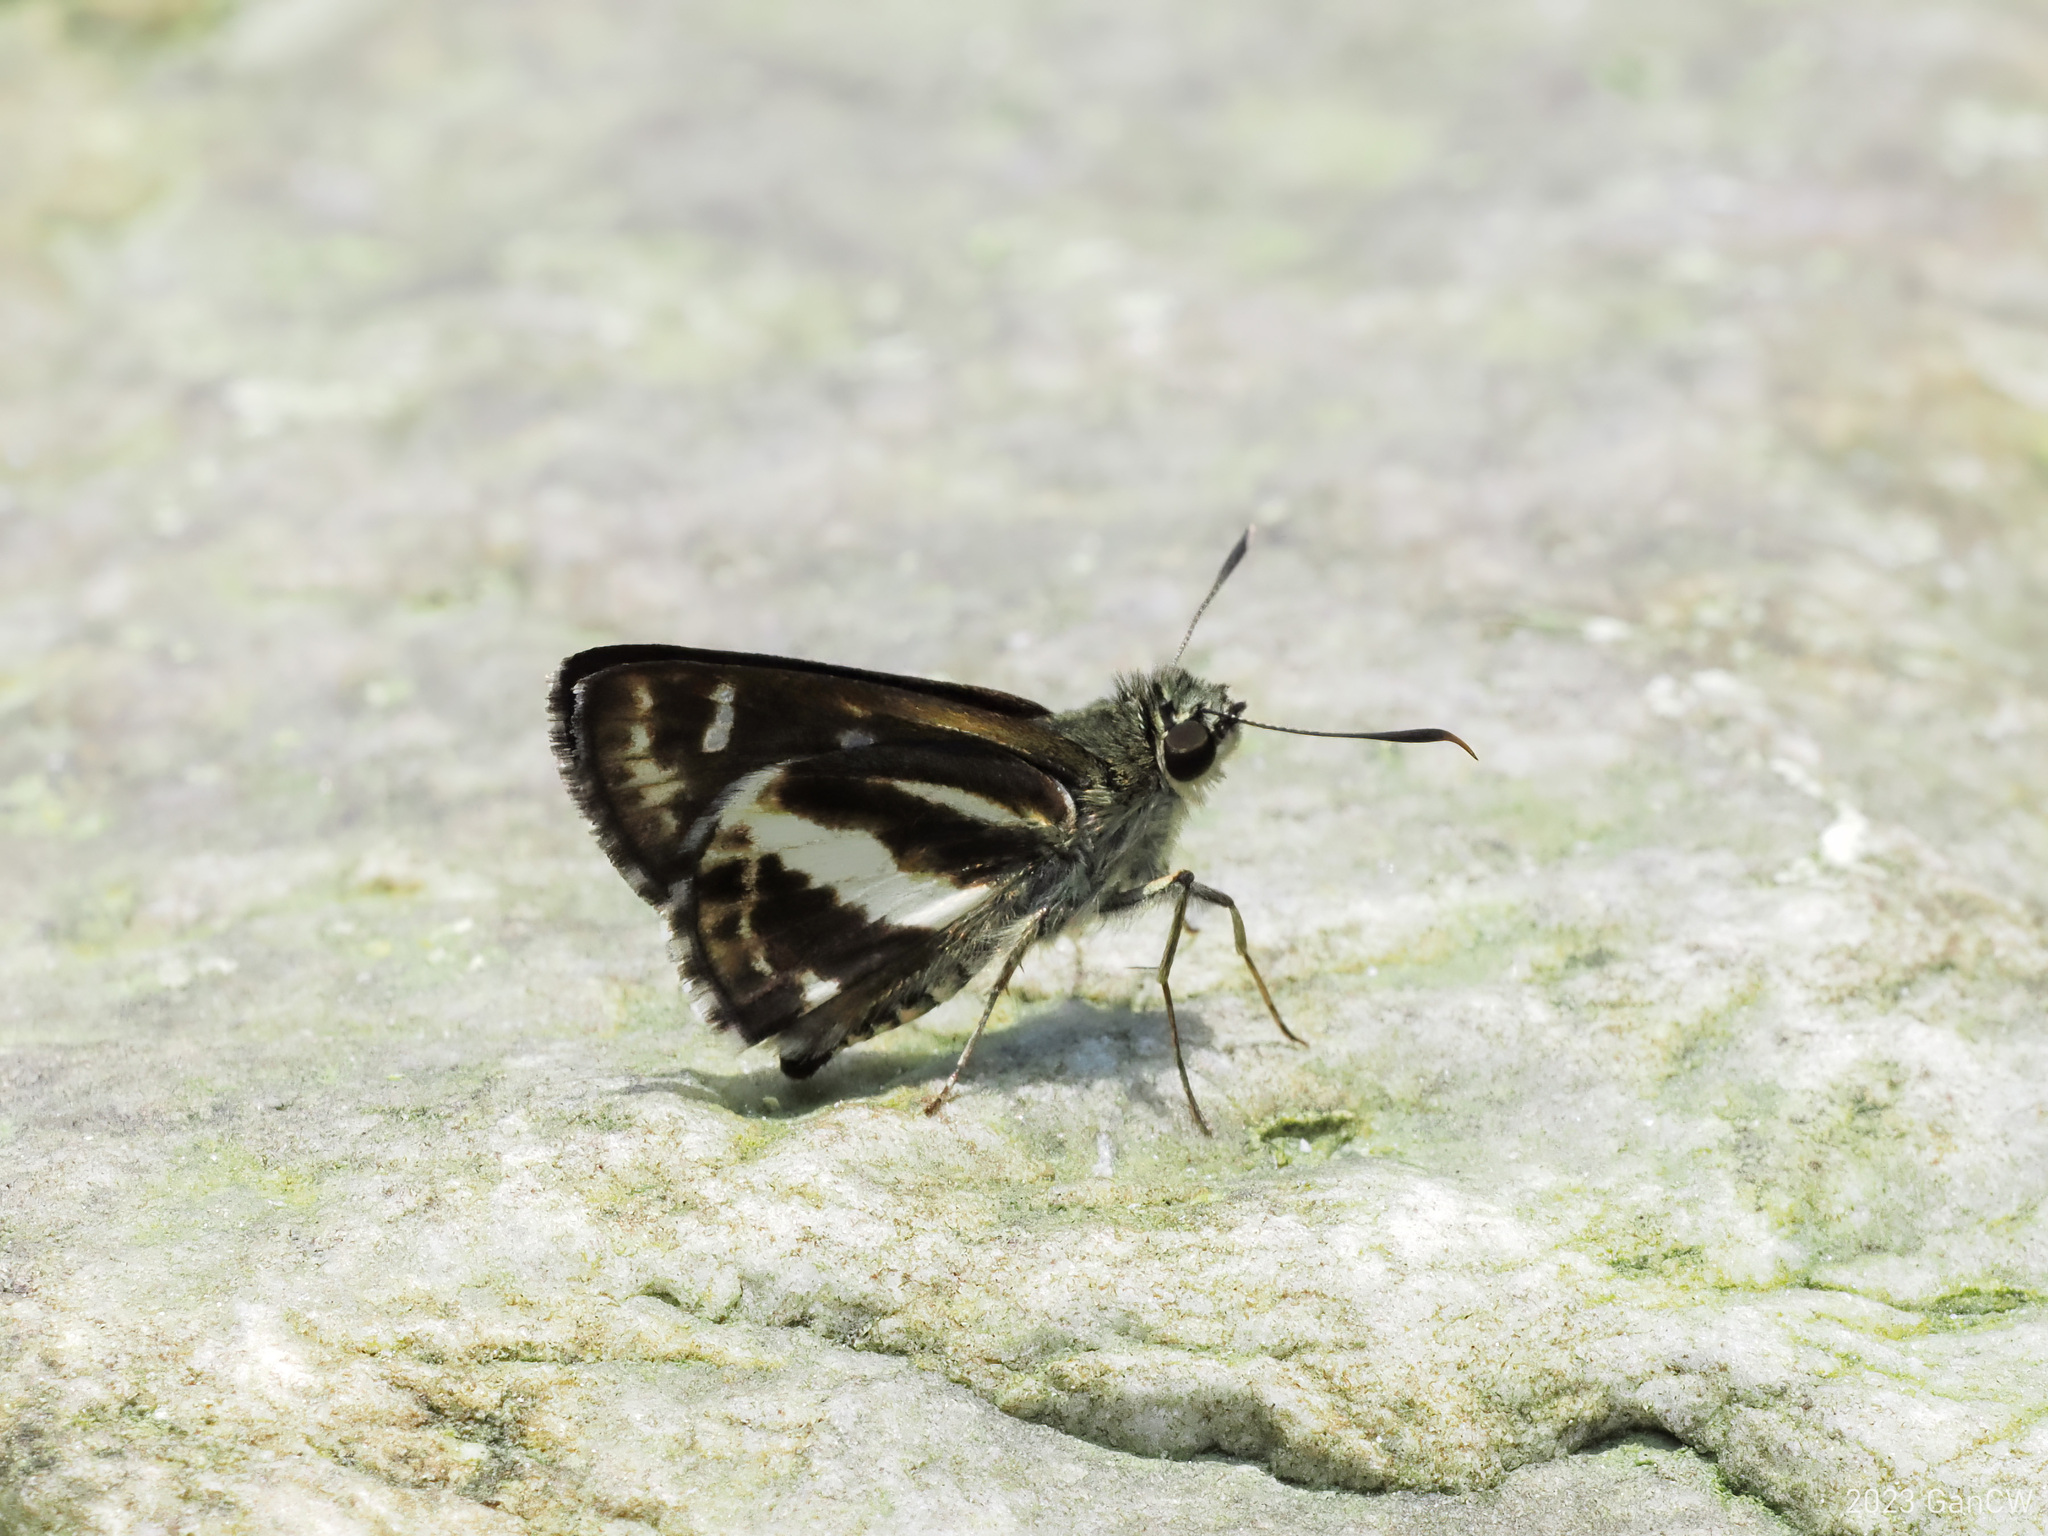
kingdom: Animalia
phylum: Arthropoda
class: Insecta
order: Lepidoptera
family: Hesperiidae
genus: Sebastonyma
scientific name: Sebastonyma dolopia
